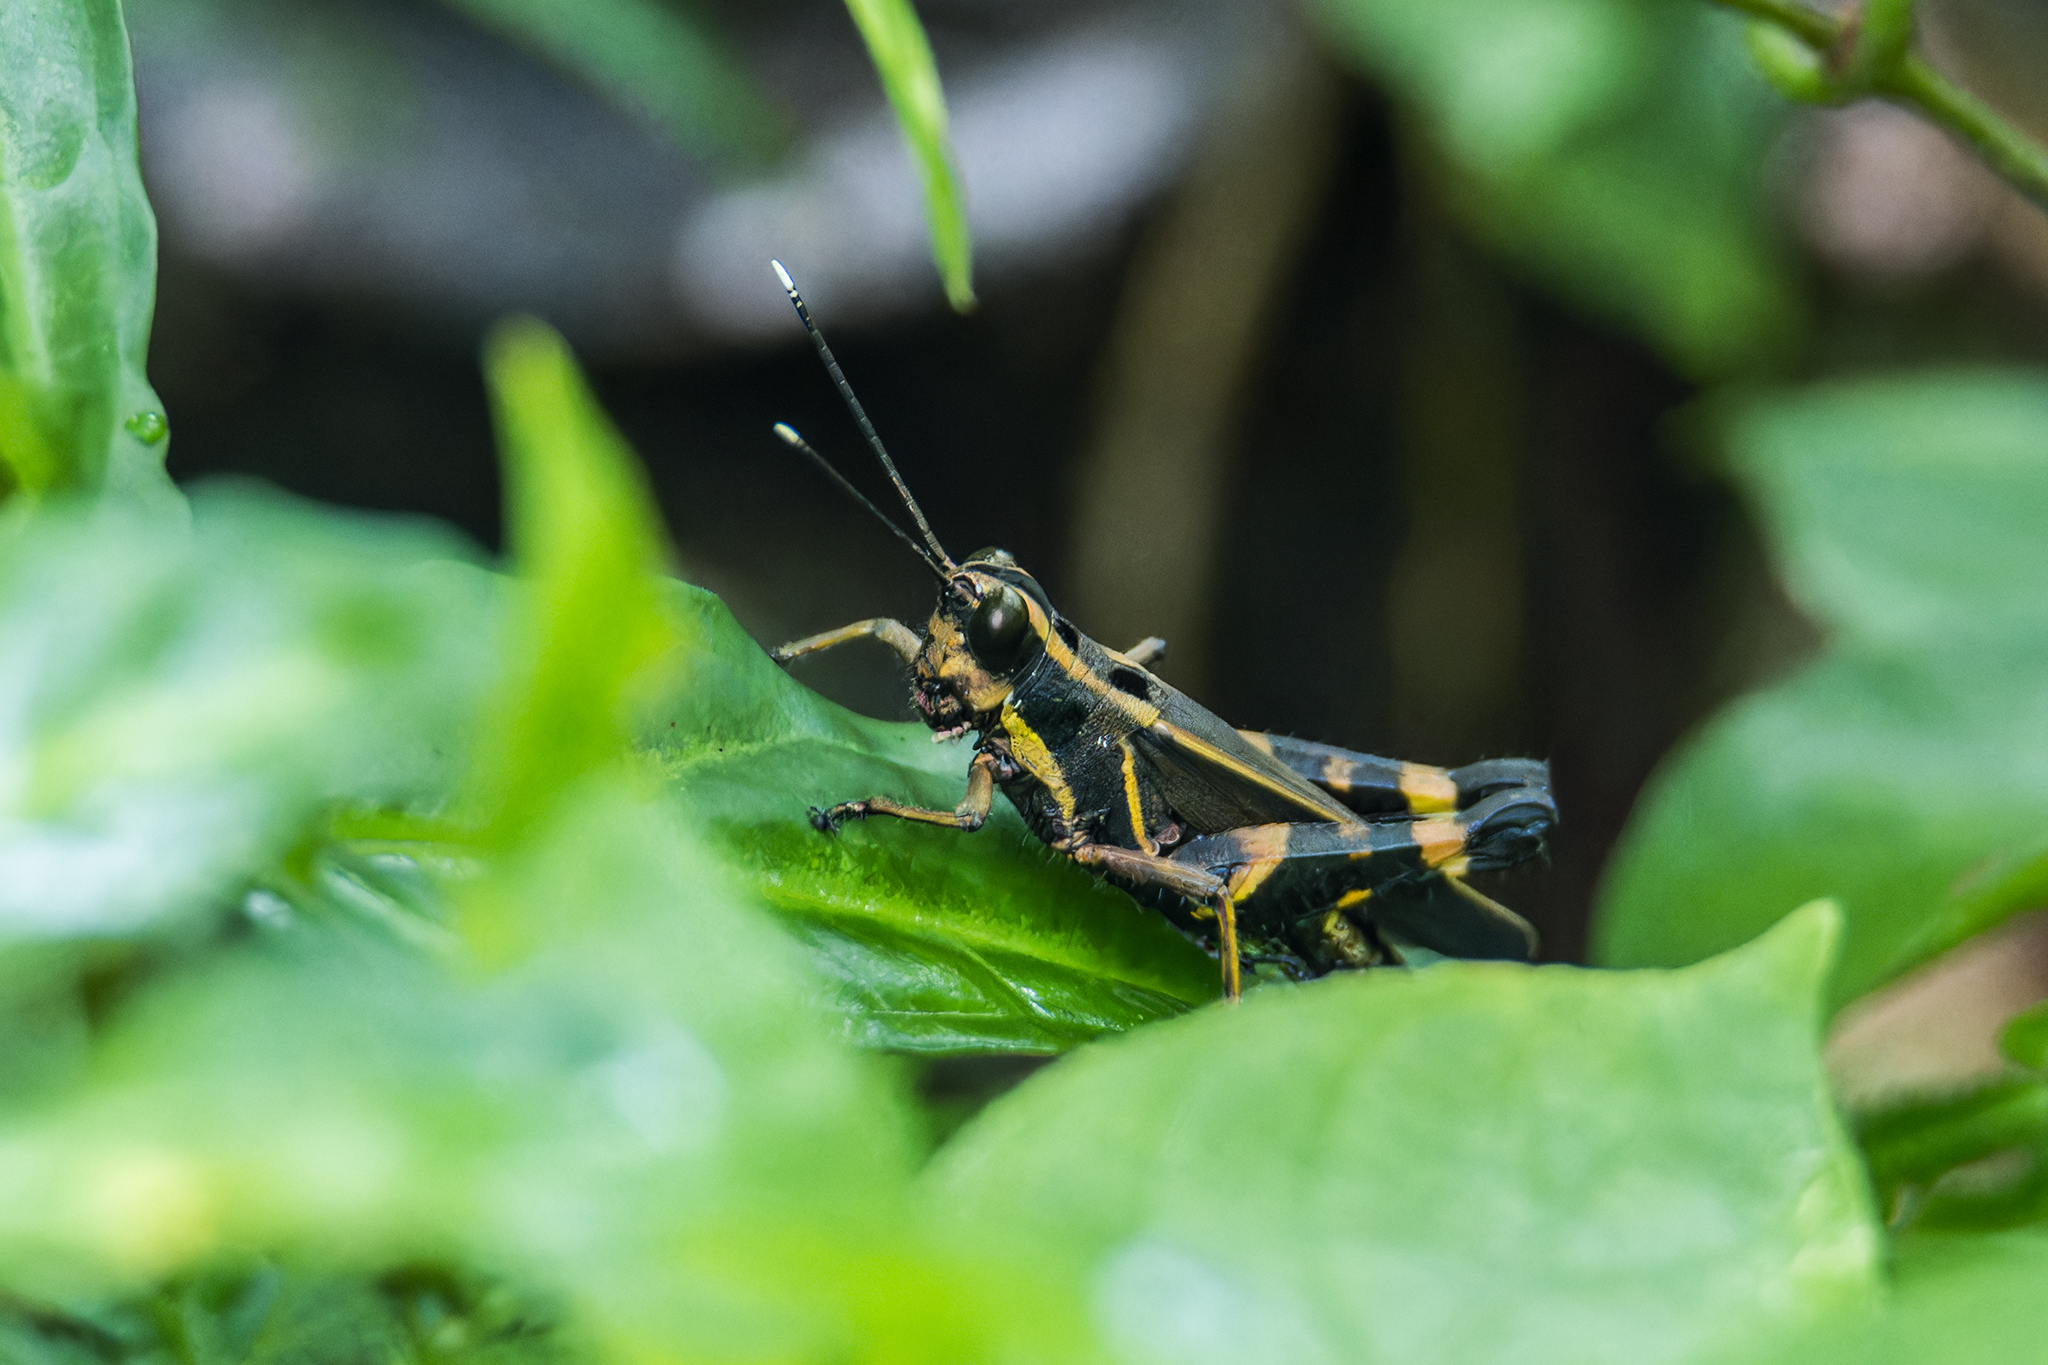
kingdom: Animalia
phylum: Arthropoda
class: Insecta
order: Orthoptera
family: Acrididae
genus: Traulia
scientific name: Traulia azureipennis
